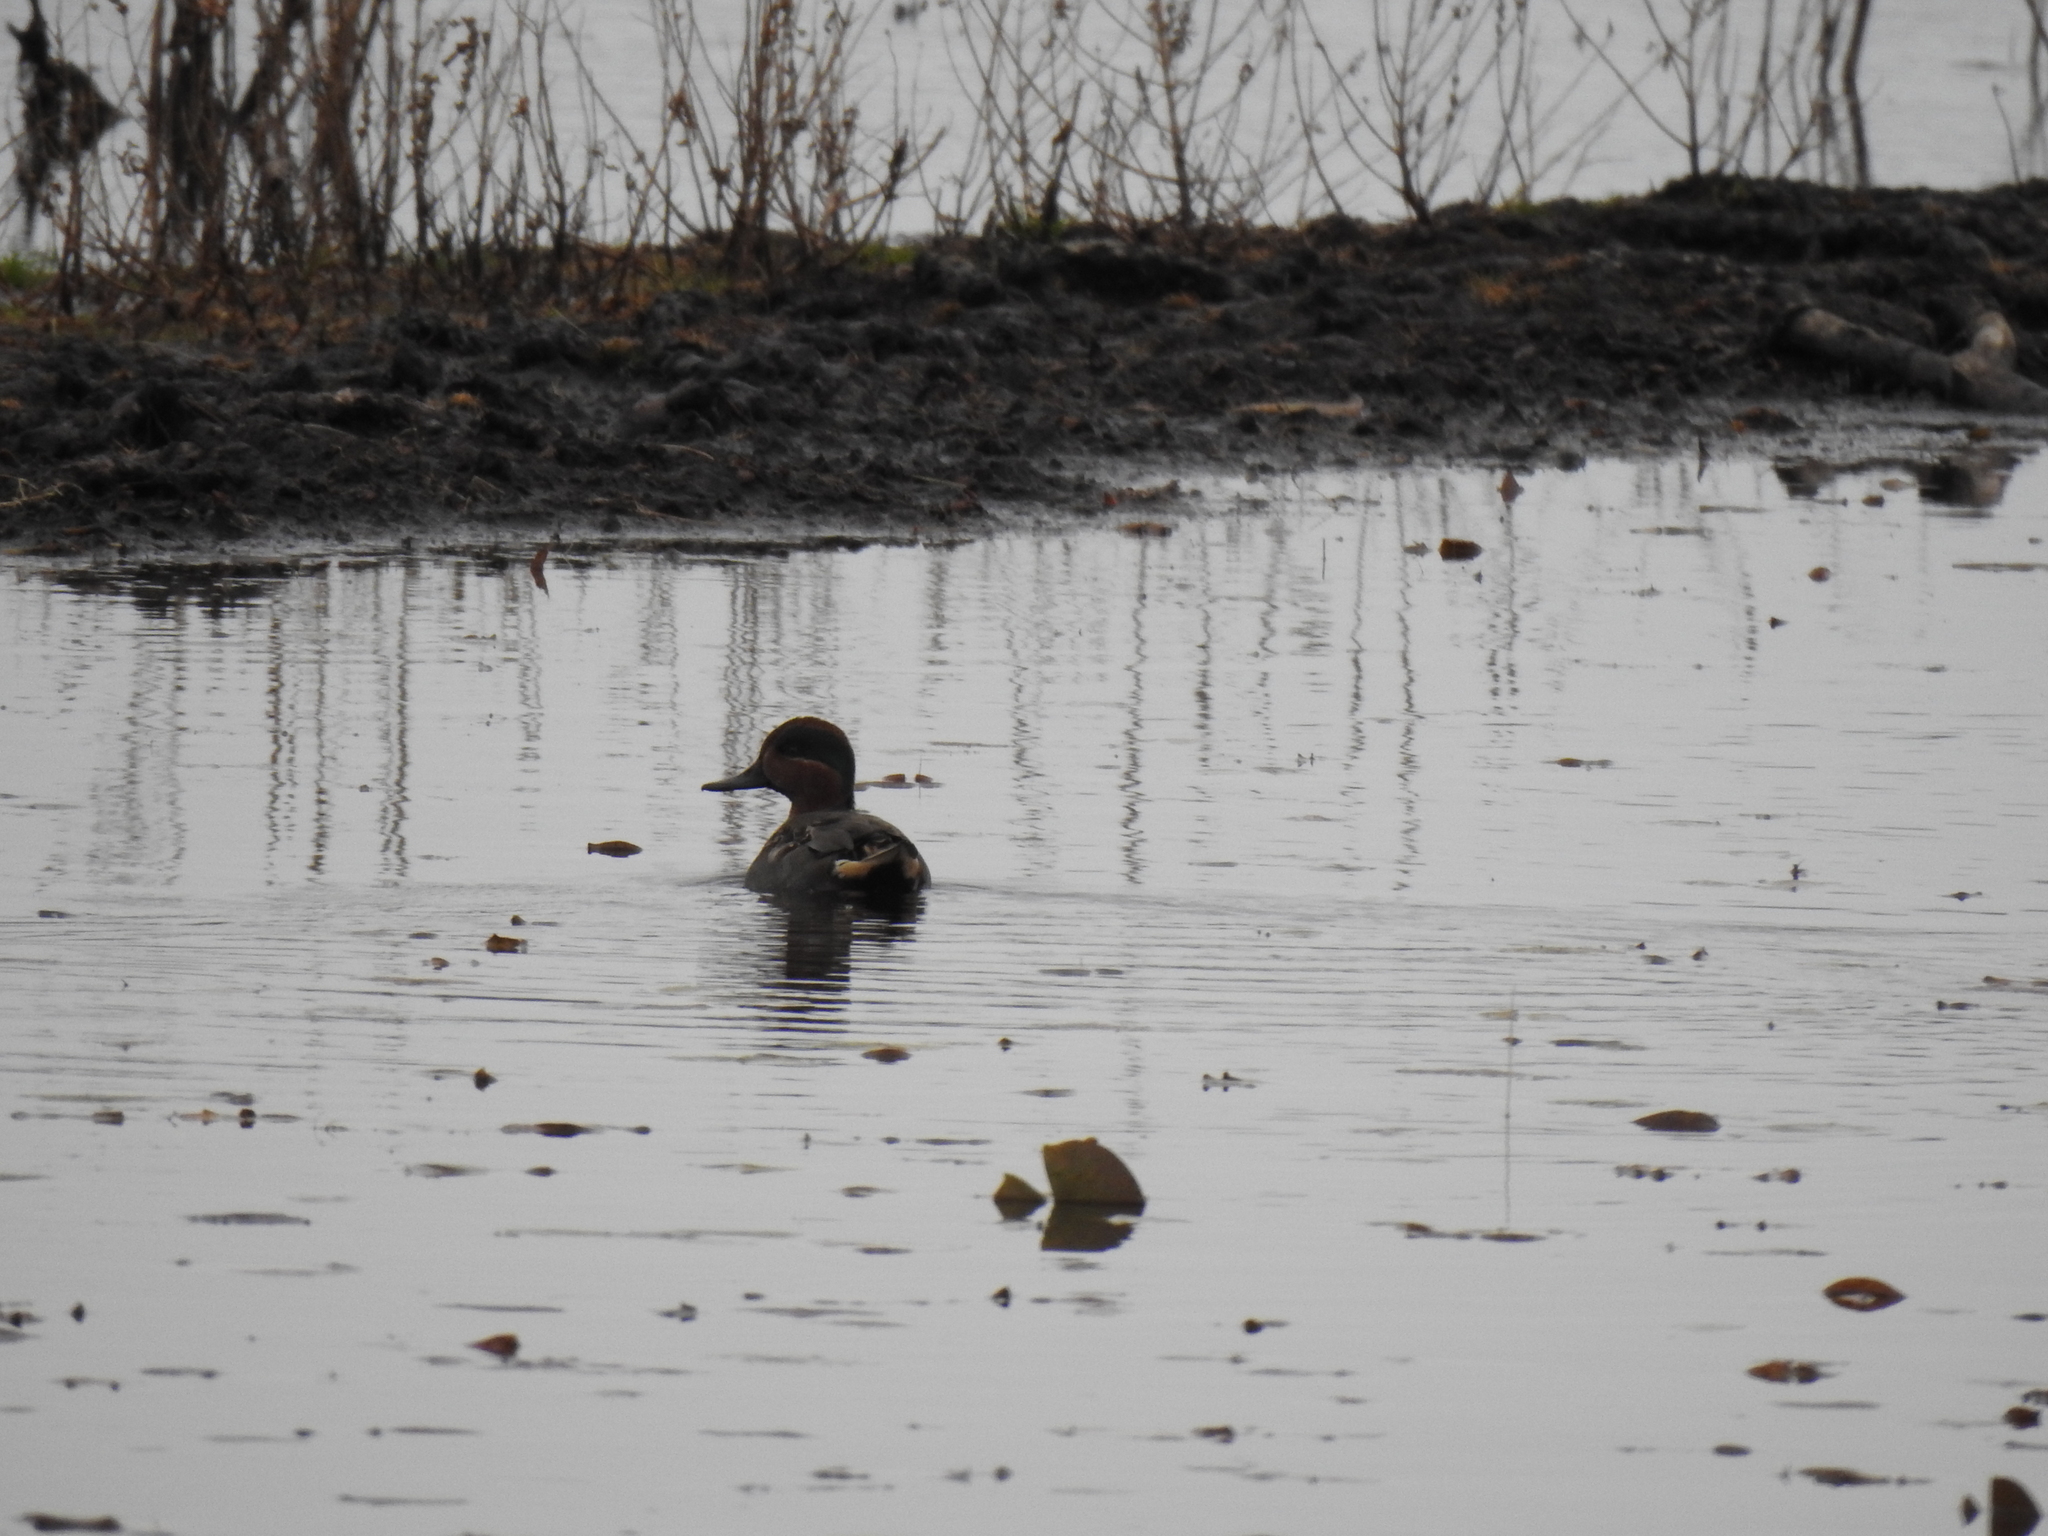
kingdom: Animalia
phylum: Chordata
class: Aves
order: Anseriformes
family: Anatidae
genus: Anas
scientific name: Anas crecca
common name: Eurasian teal
